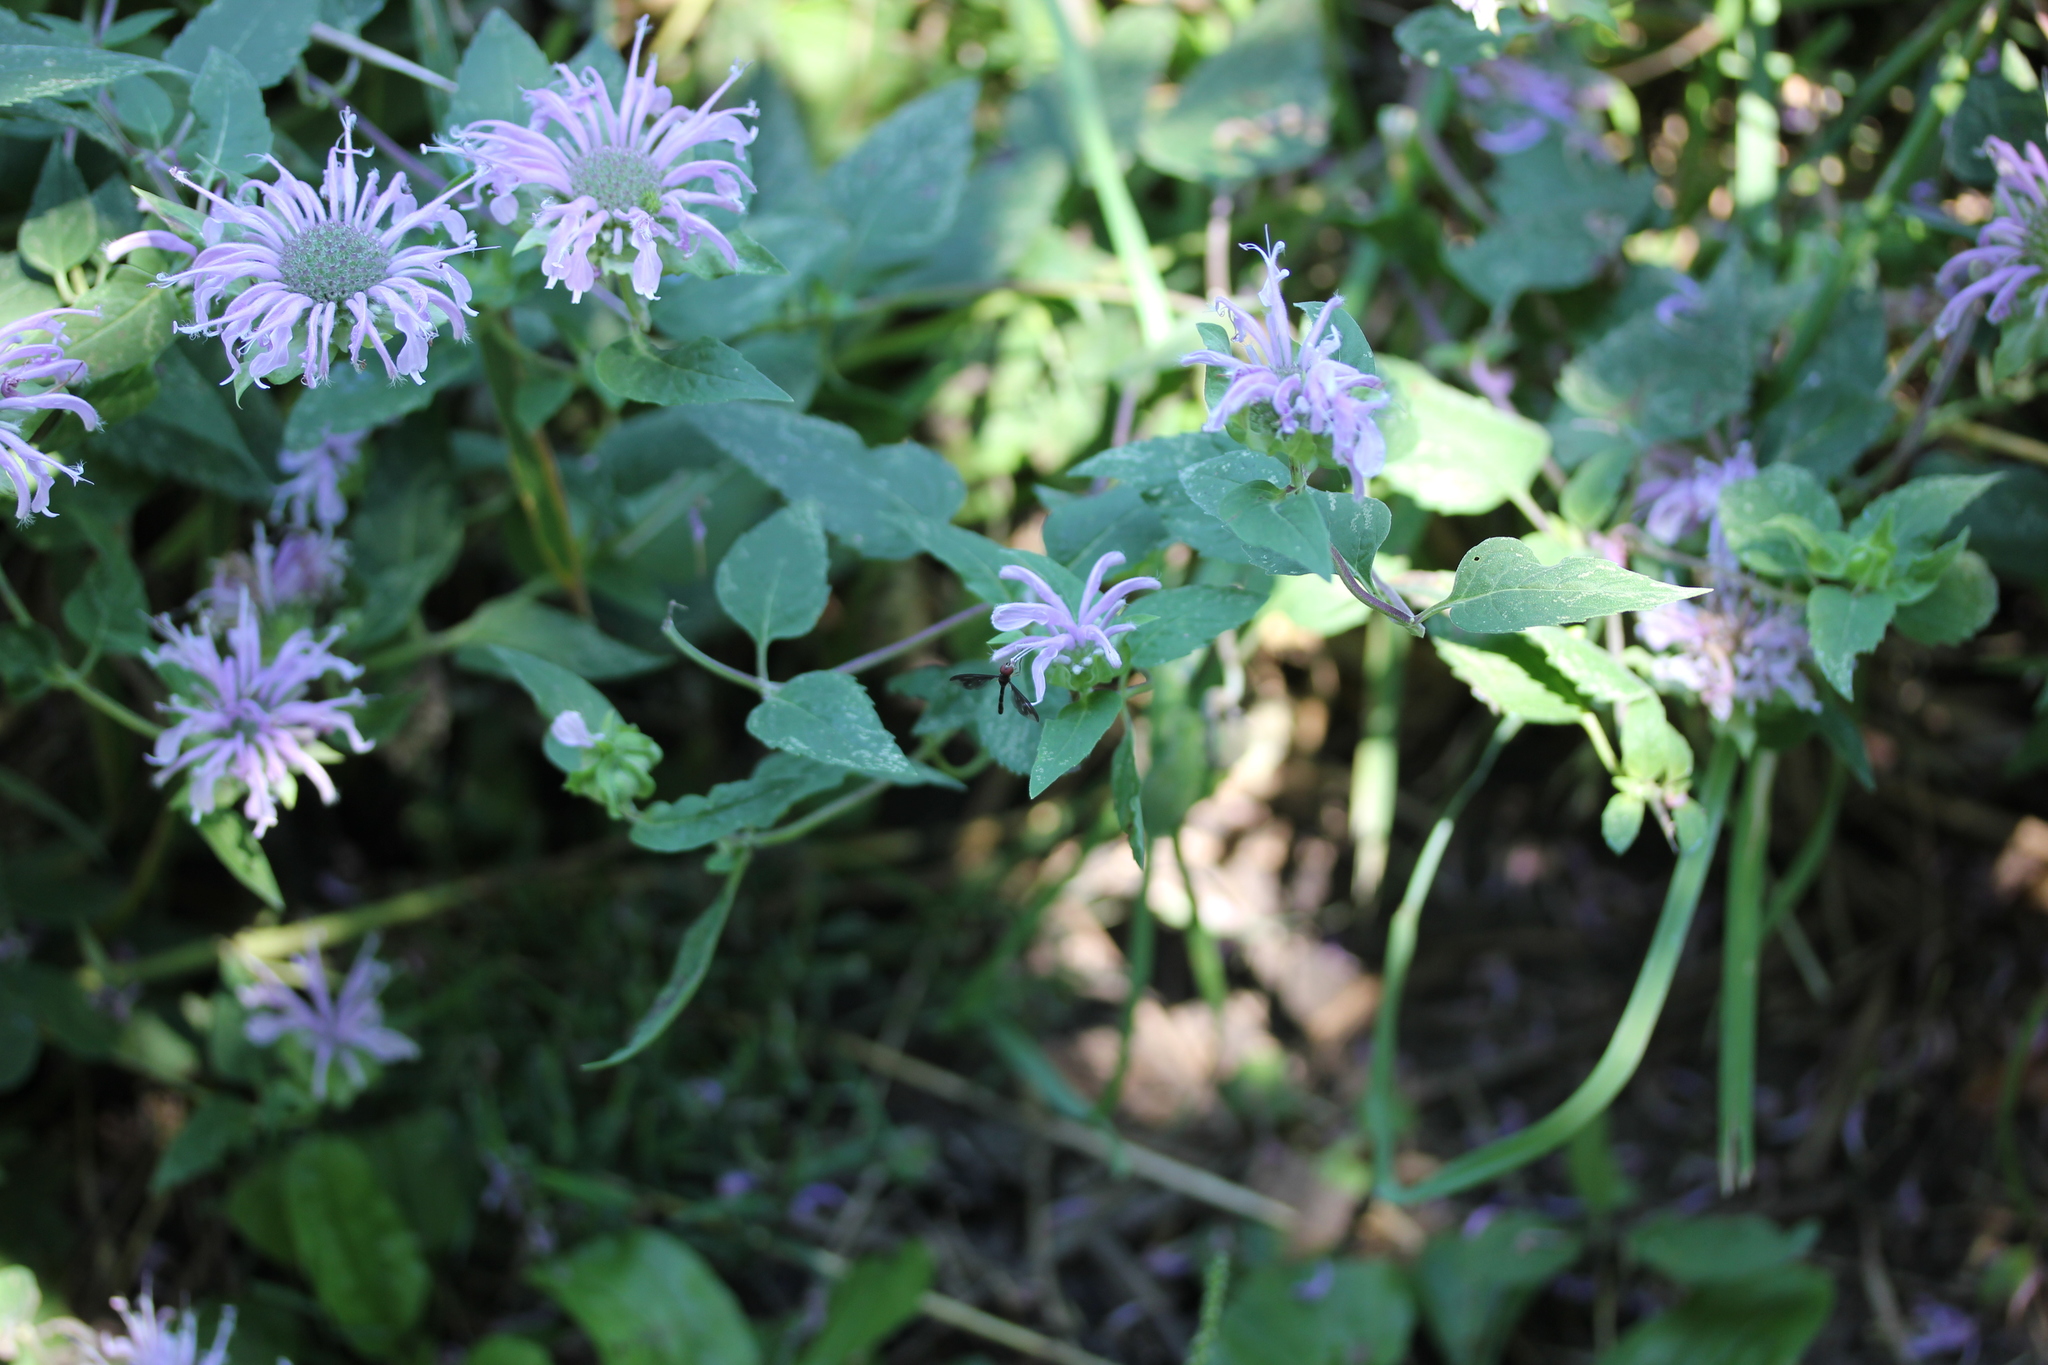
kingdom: Plantae
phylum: Tracheophyta
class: Magnoliopsida
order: Lamiales
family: Lamiaceae
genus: Monarda
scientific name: Monarda fistulosa
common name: Purple beebalm
